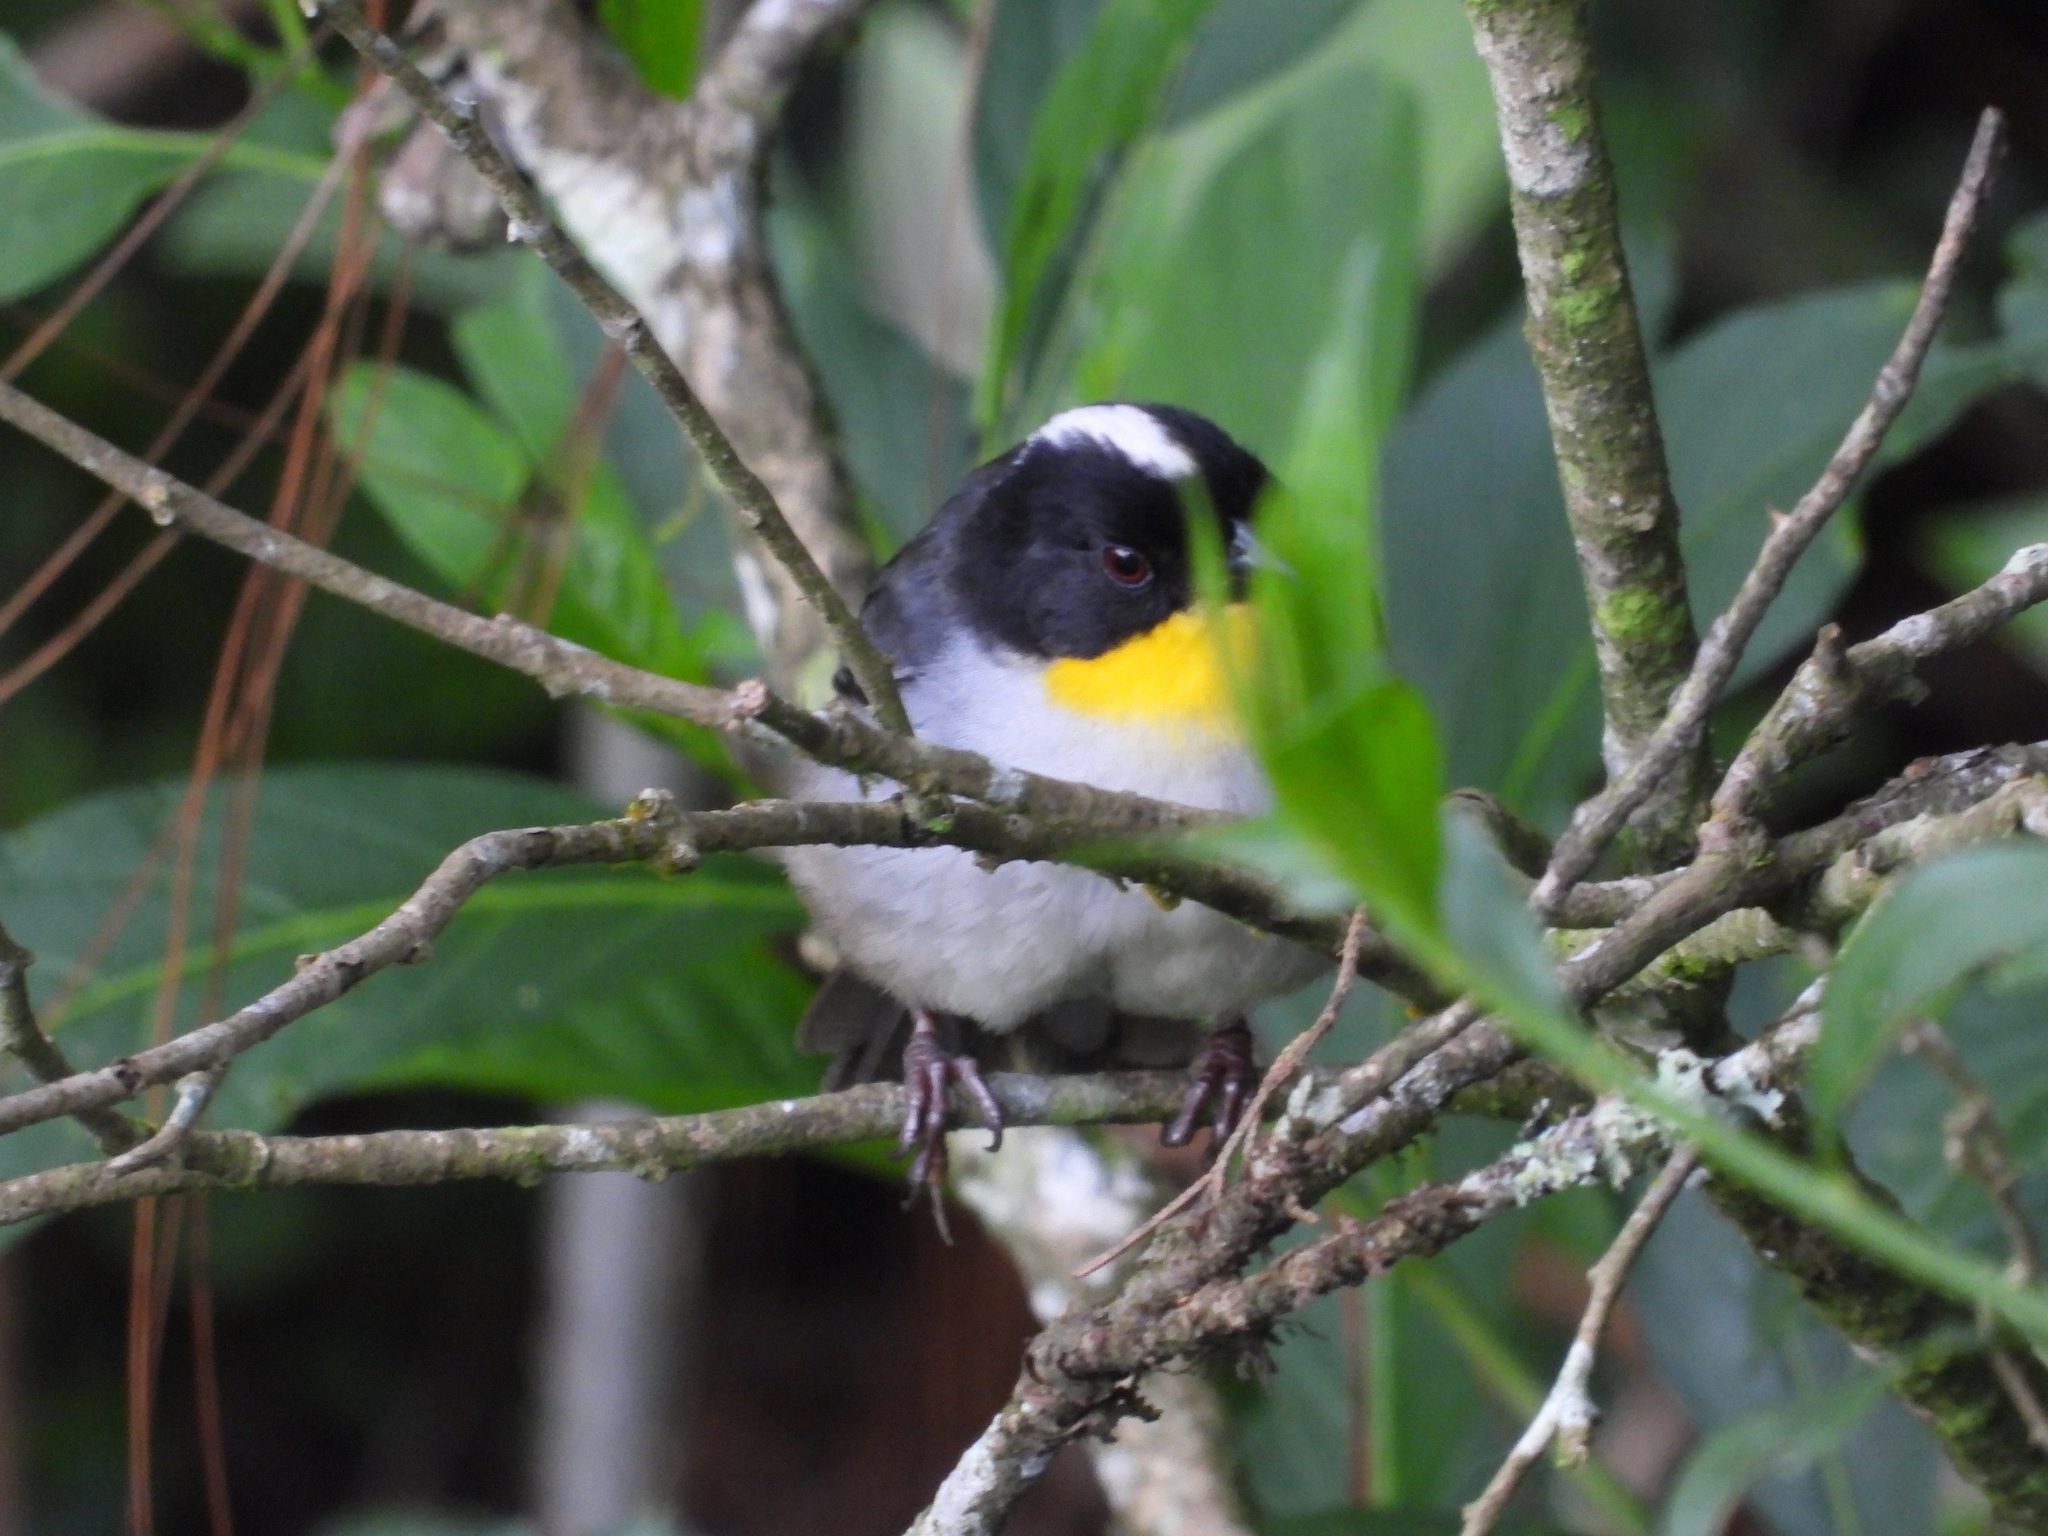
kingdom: Animalia
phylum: Chordata
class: Aves
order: Passeriformes
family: Passerellidae
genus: Atlapetes
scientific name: Atlapetes albinucha
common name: White-naped brush-finch
